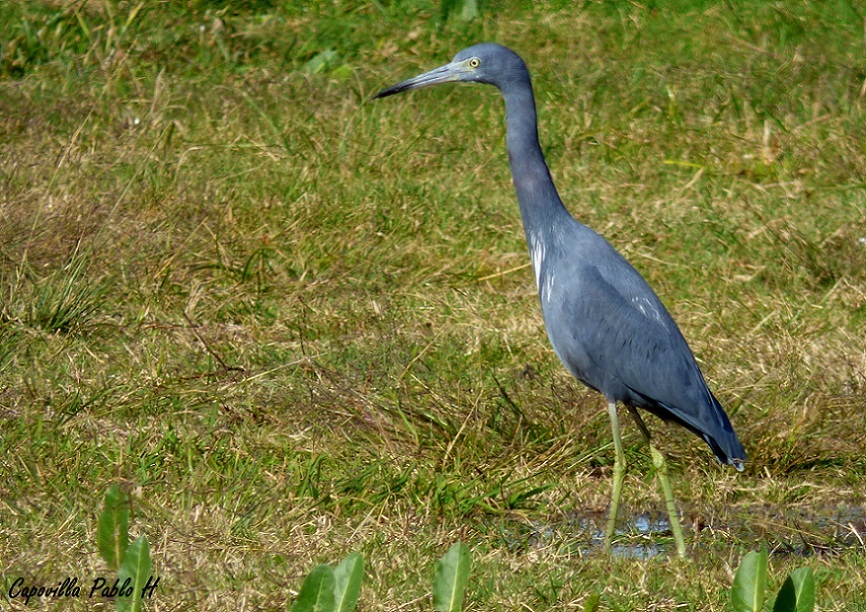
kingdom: Animalia
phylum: Chordata
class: Aves
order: Pelecaniformes
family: Ardeidae
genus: Egretta
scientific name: Egretta caerulea
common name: Little blue heron
